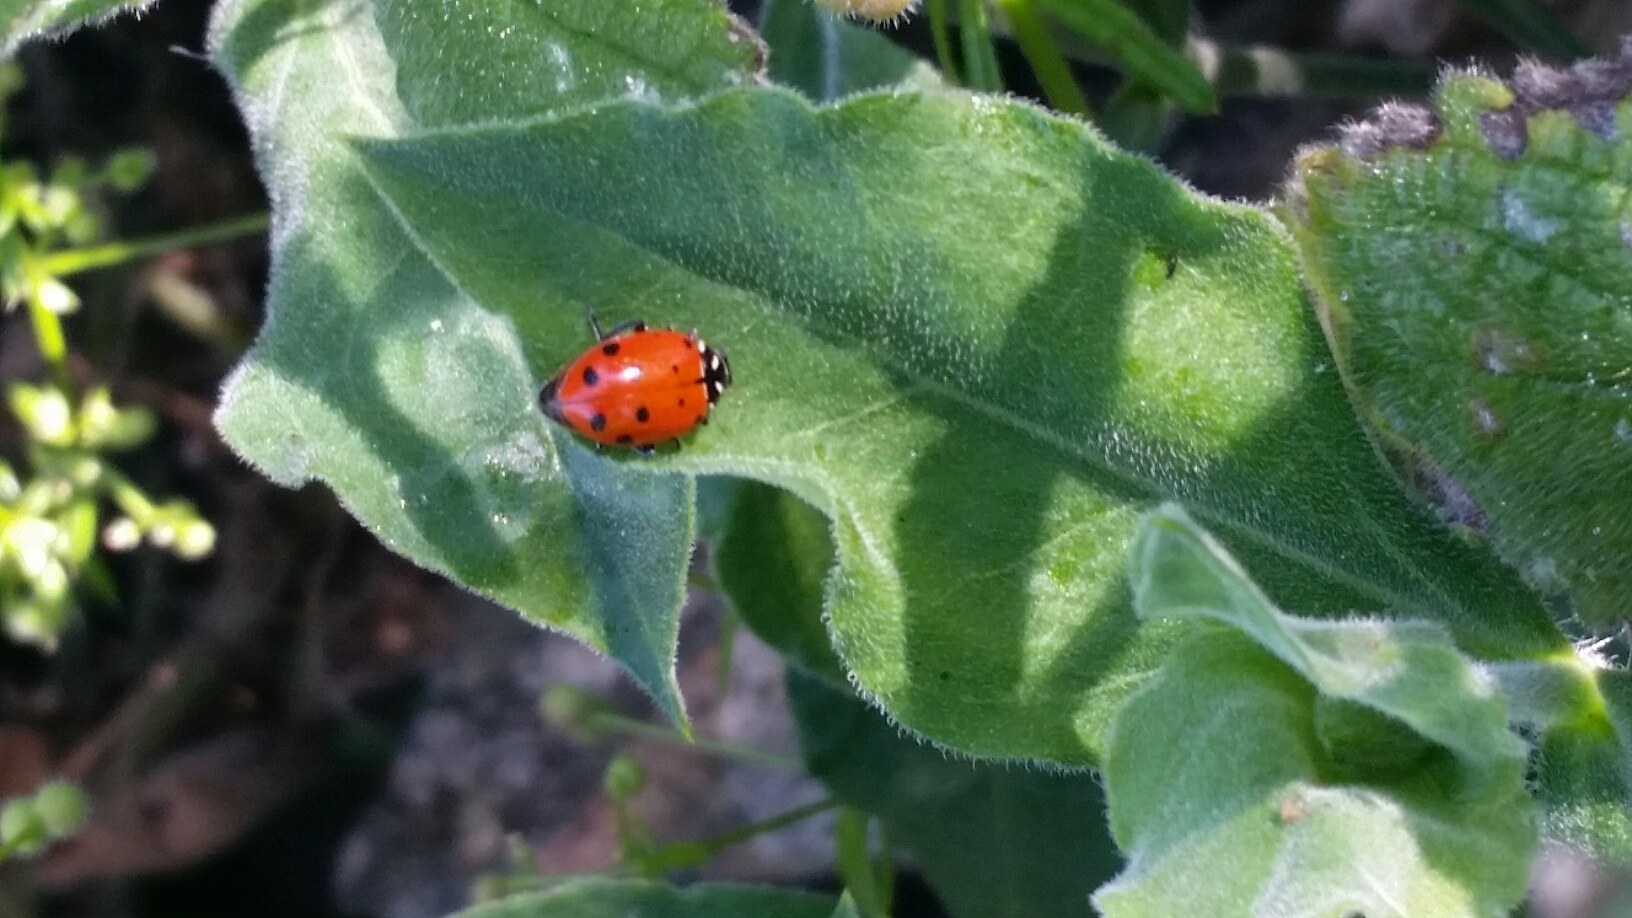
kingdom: Animalia
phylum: Arthropoda
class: Insecta
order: Coleoptera
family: Coccinellidae
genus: Hippodamia
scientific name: Hippodamia convergens
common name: Convergent lady beetle
